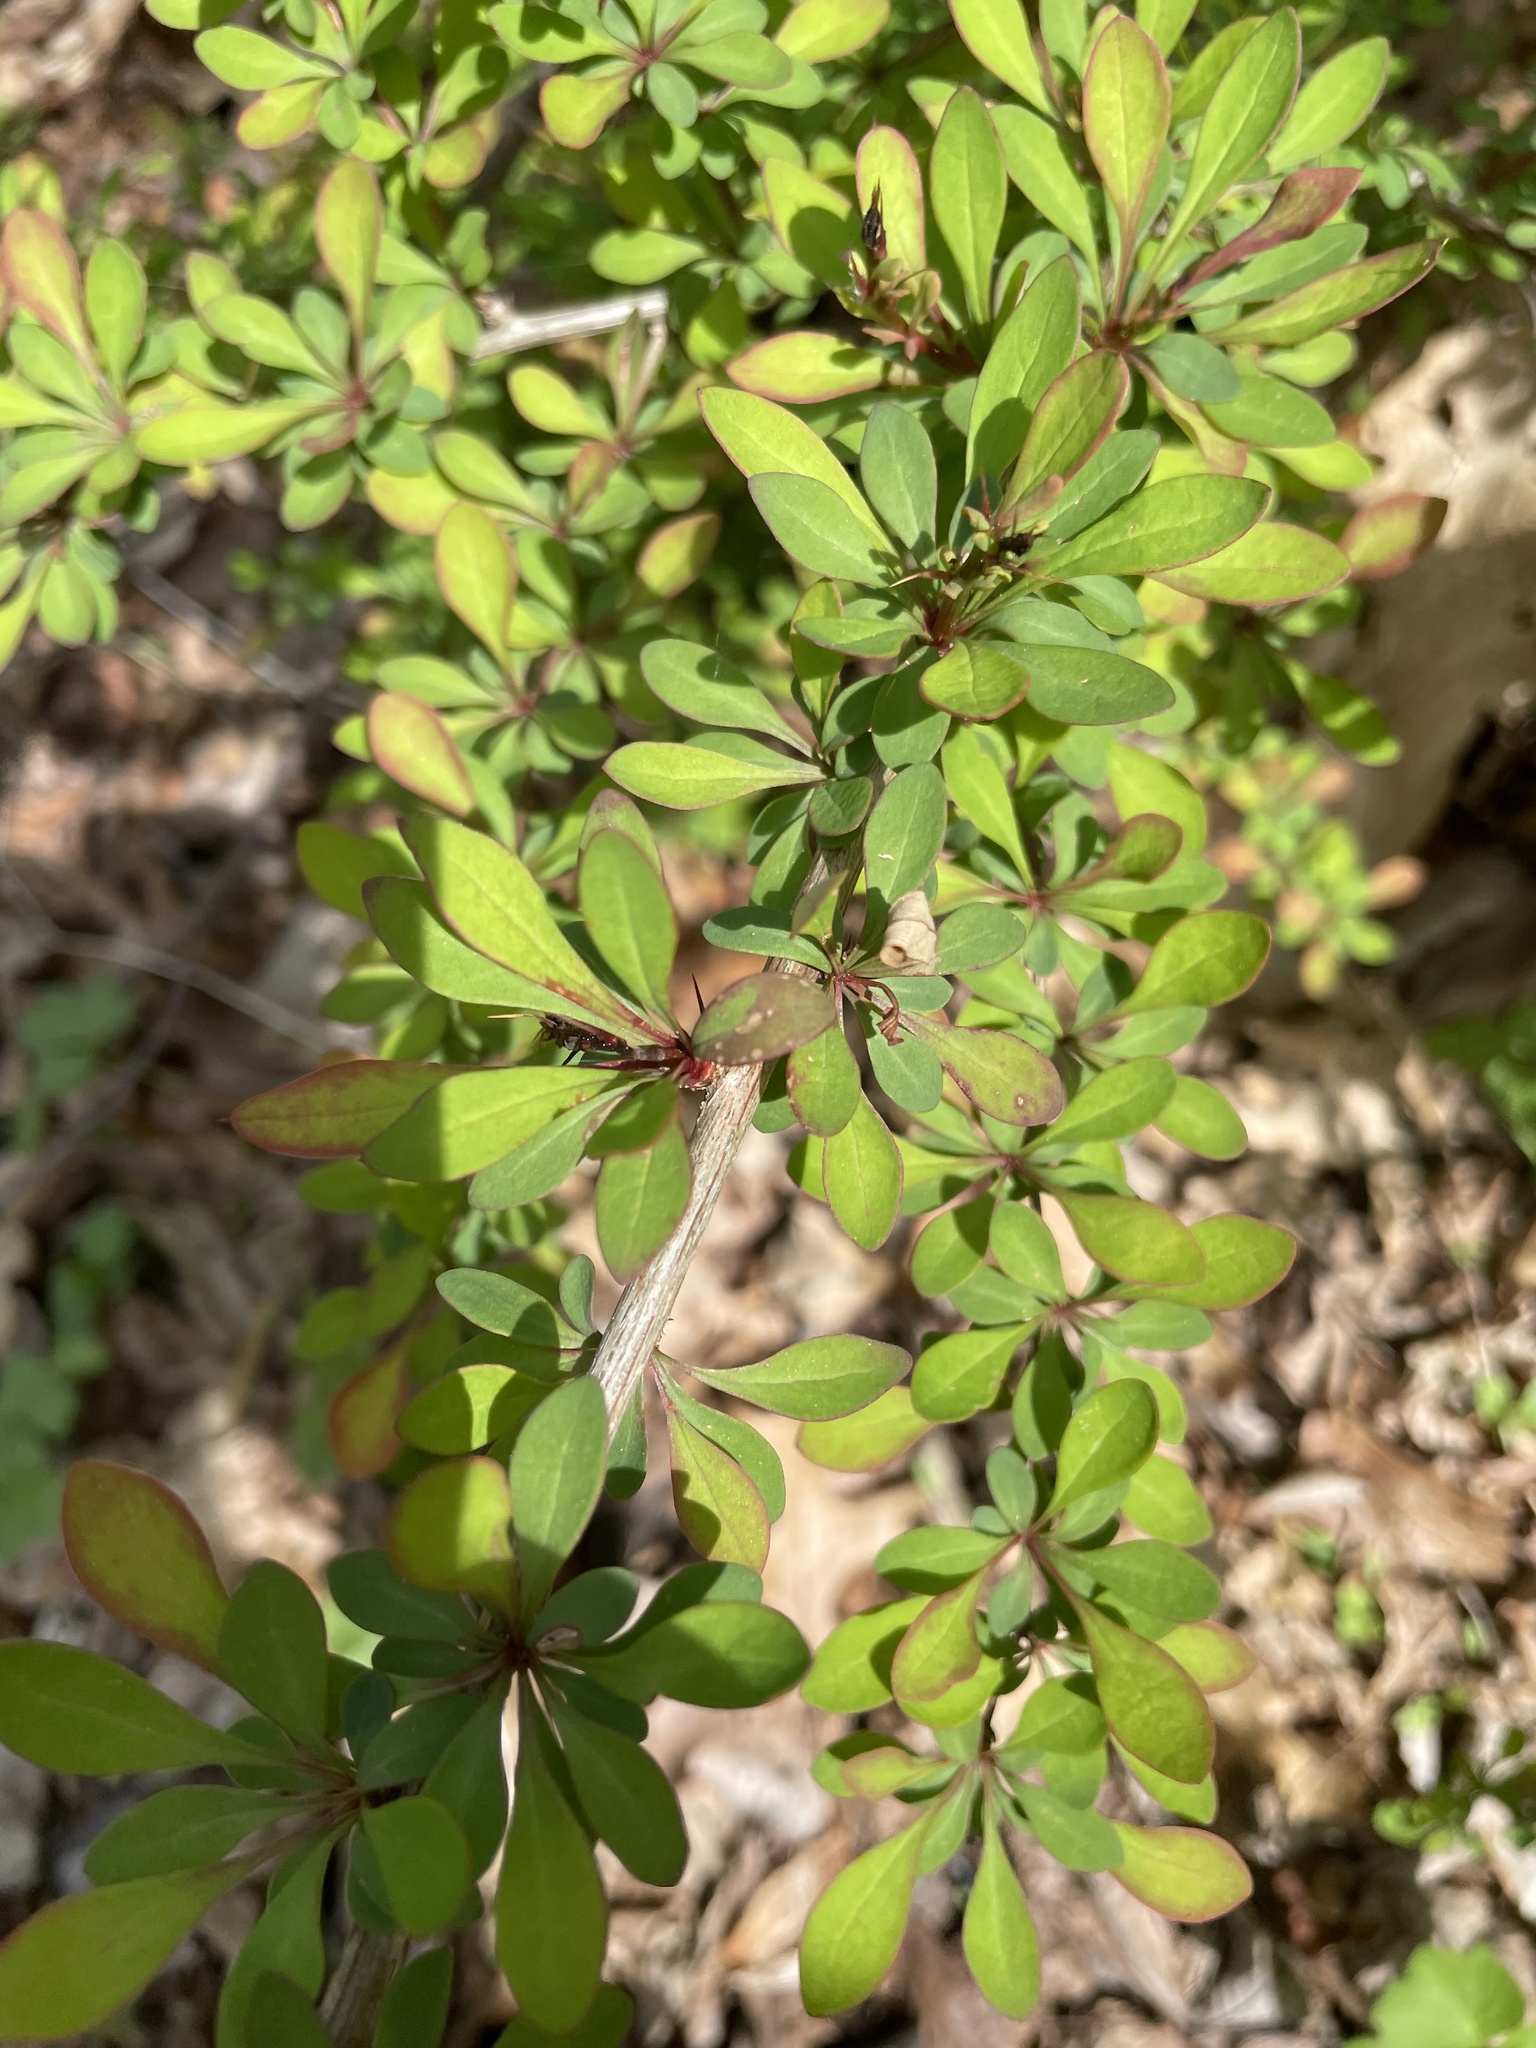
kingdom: Plantae
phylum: Tracheophyta
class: Magnoliopsida
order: Ranunculales
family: Berberidaceae
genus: Berberis
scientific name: Berberis thunbergii
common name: Japanese barberry
